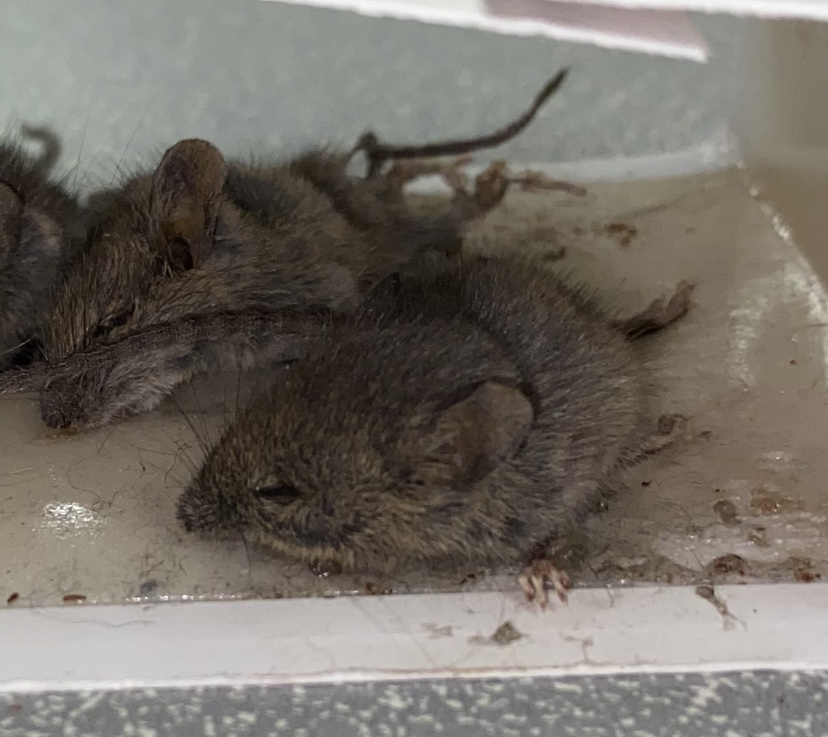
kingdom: Animalia
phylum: Chordata
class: Mammalia
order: Rodentia
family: Muridae
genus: Mus
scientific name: Mus musculus
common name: House mouse
